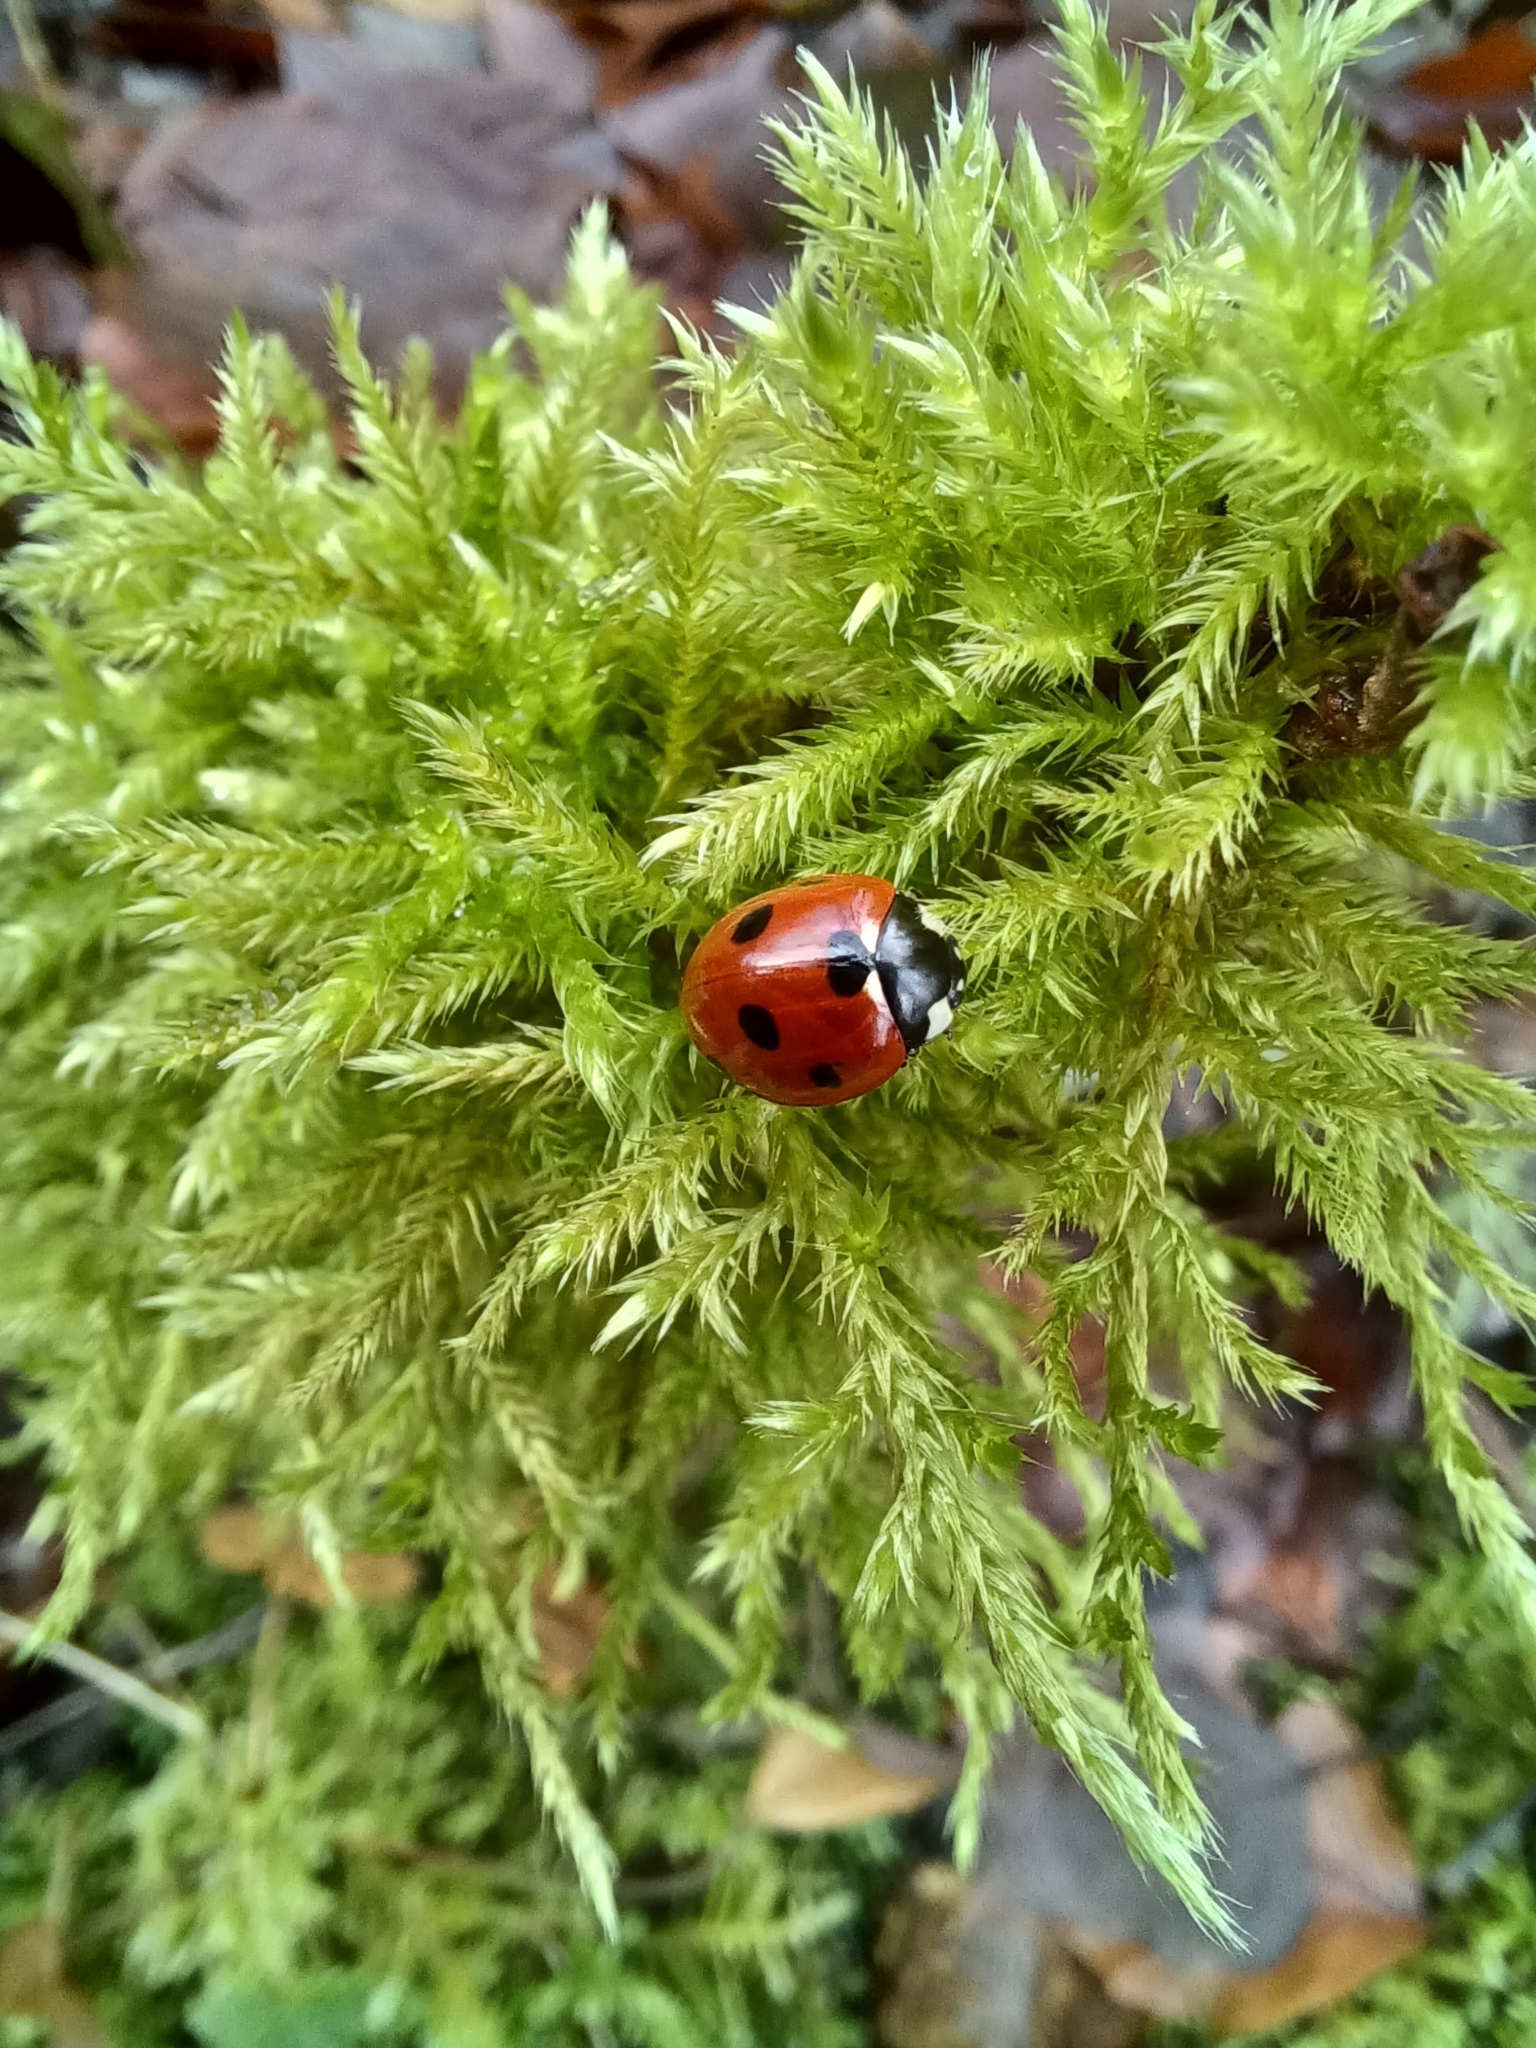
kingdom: Animalia
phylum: Arthropoda
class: Insecta
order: Coleoptera
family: Coccinellidae
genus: Coccinella
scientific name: Coccinella septempunctata
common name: Sevenspotted lady beetle
